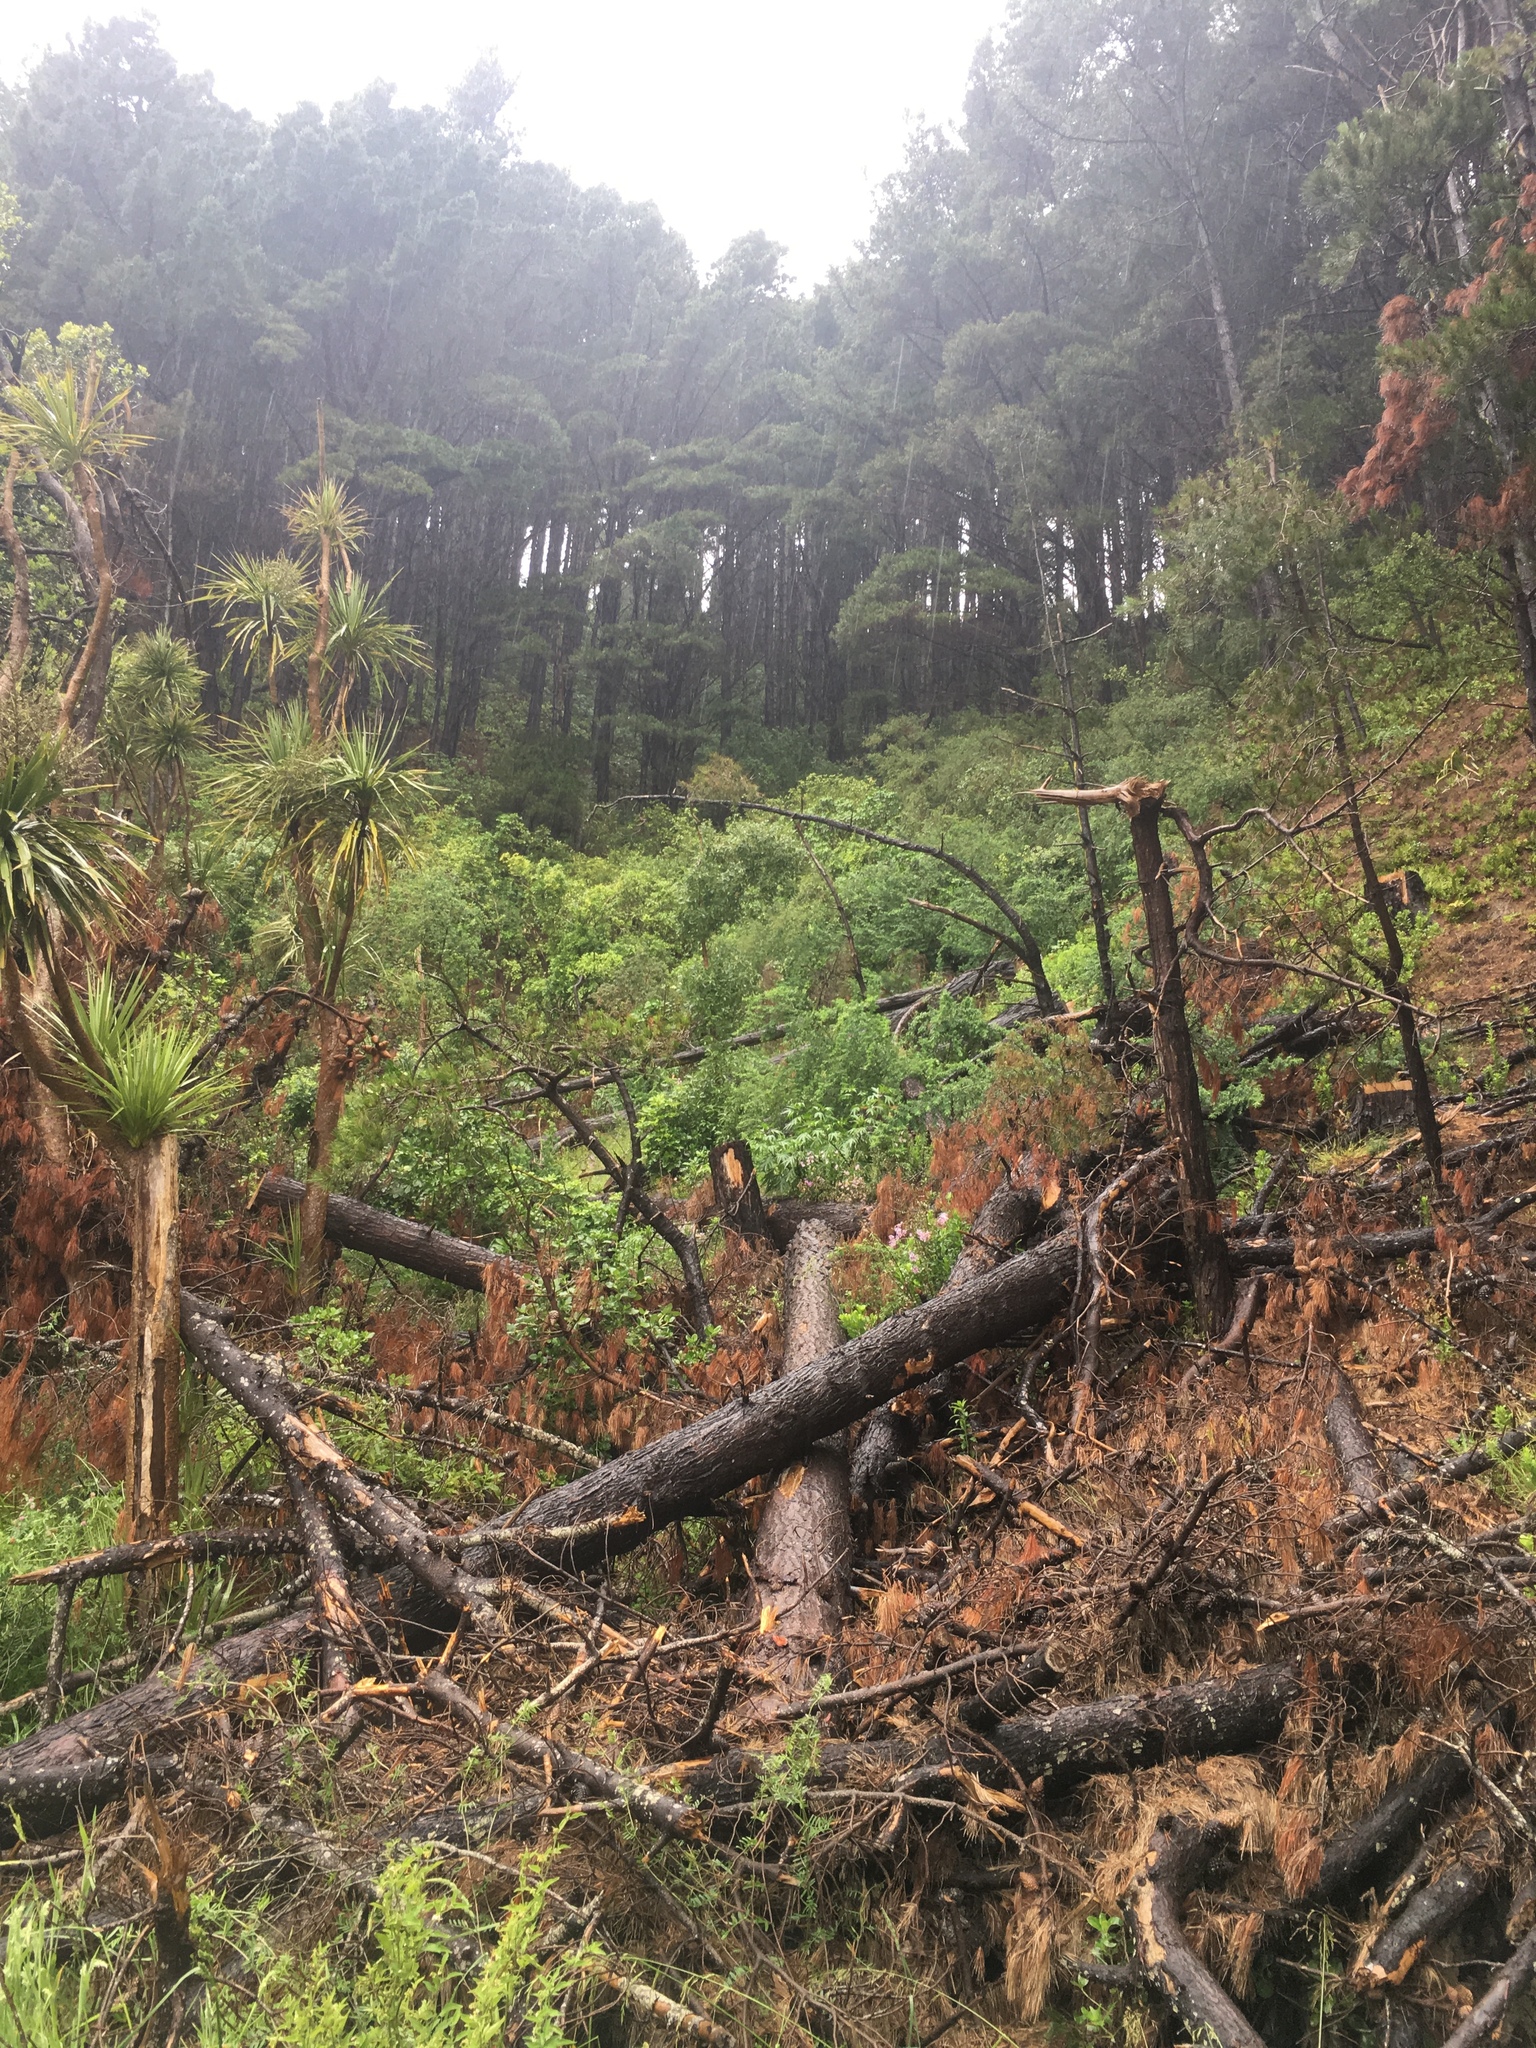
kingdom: Plantae
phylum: Tracheophyta
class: Liliopsida
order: Asparagales
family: Asparagaceae
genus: Cordyline
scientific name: Cordyline australis
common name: Cabbage-palm
